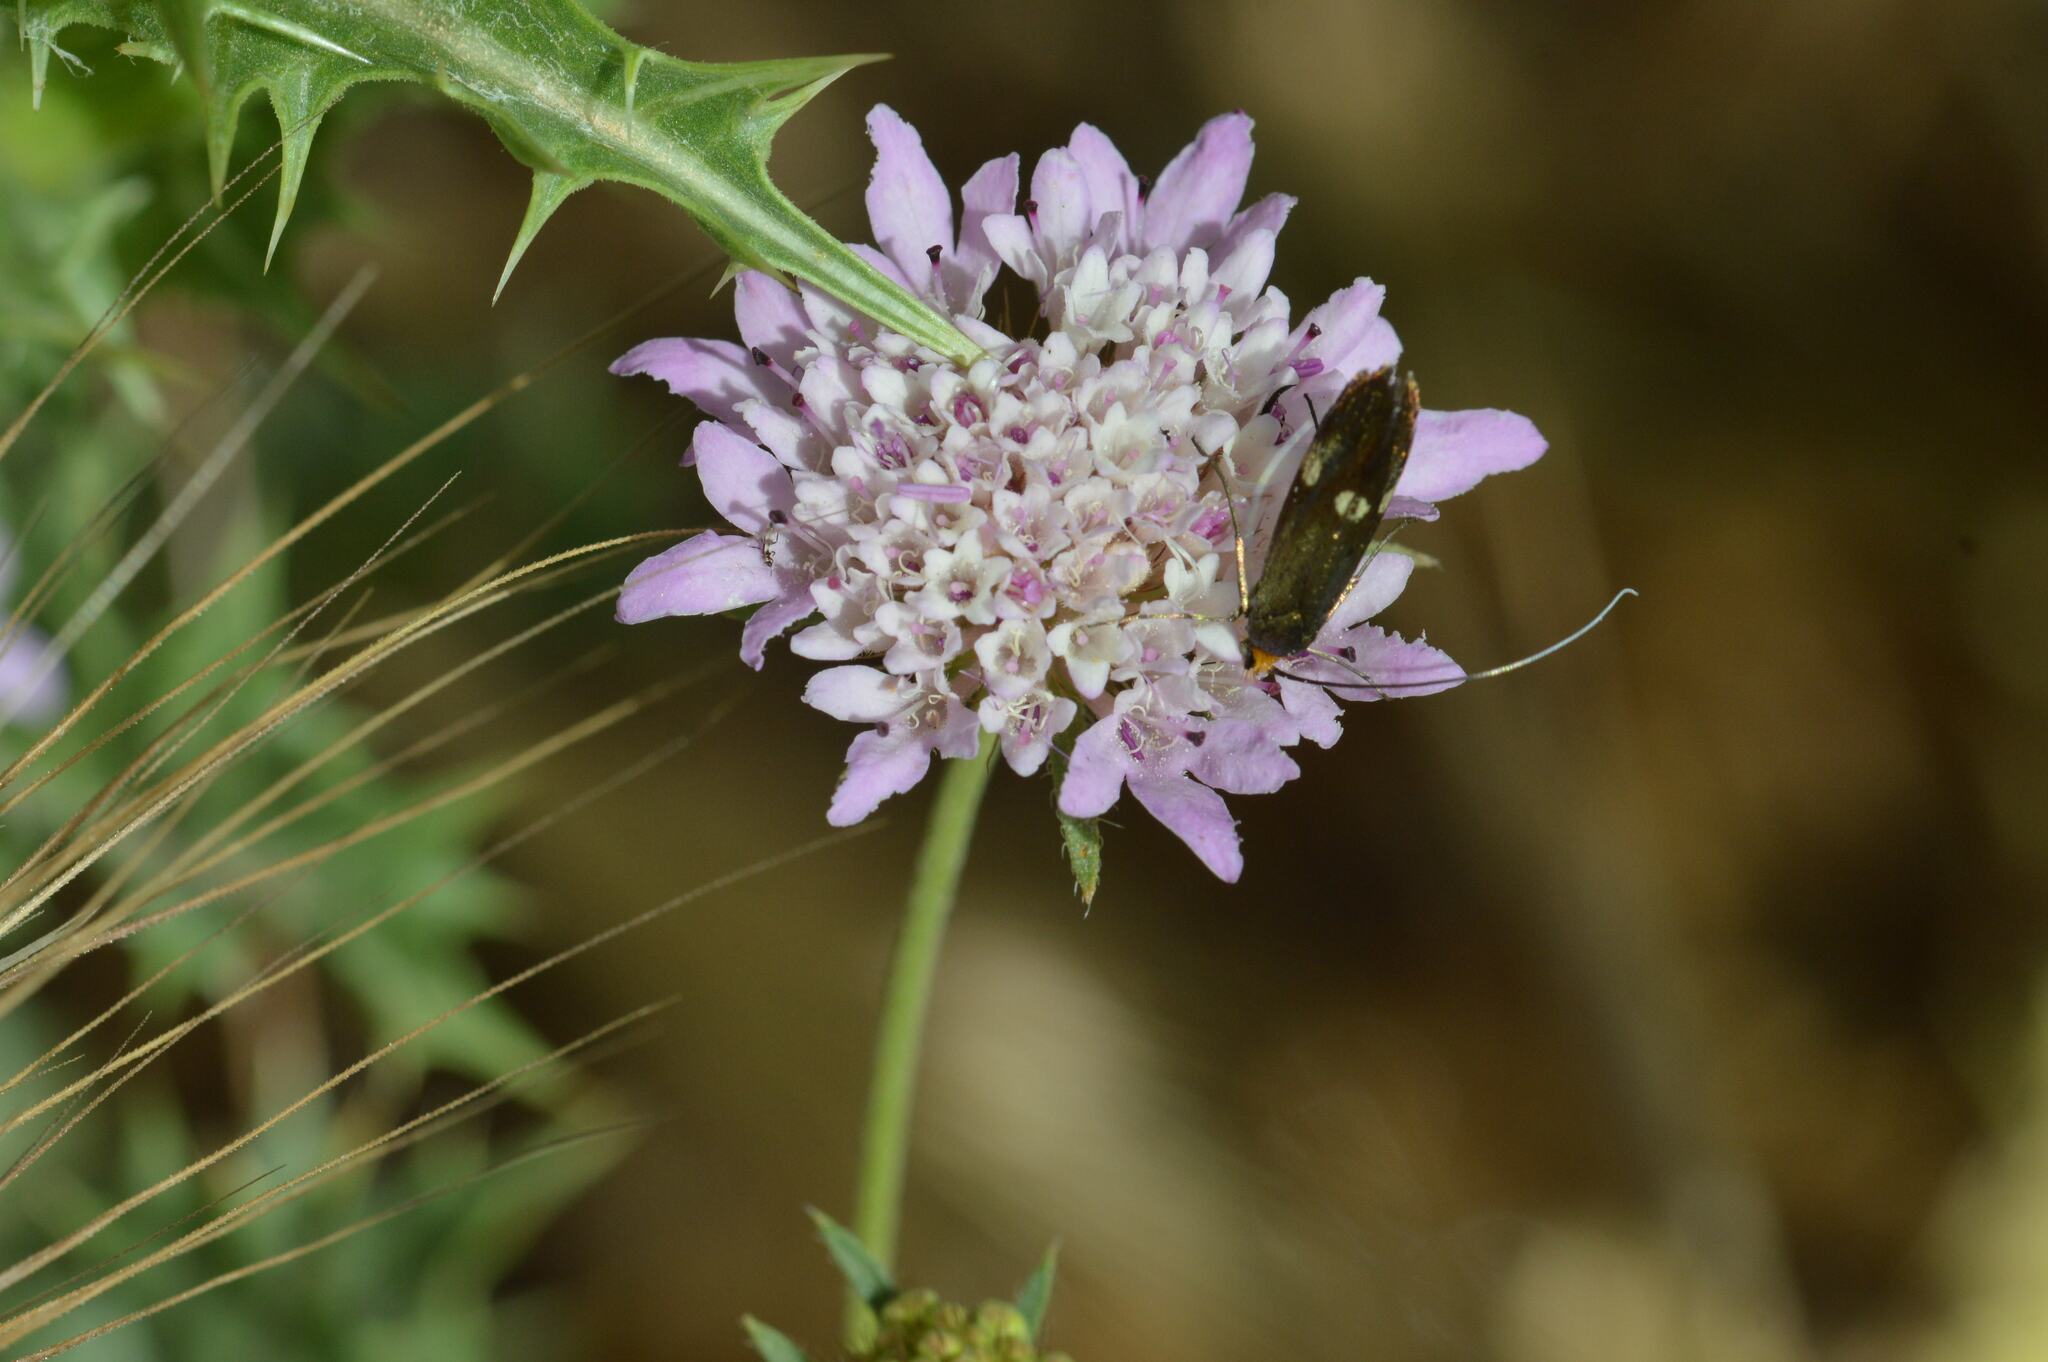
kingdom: Animalia
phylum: Arthropoda
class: Insecta
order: Lepidoptera
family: Adelidae
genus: Nemophora
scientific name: Nemophora raddaella
